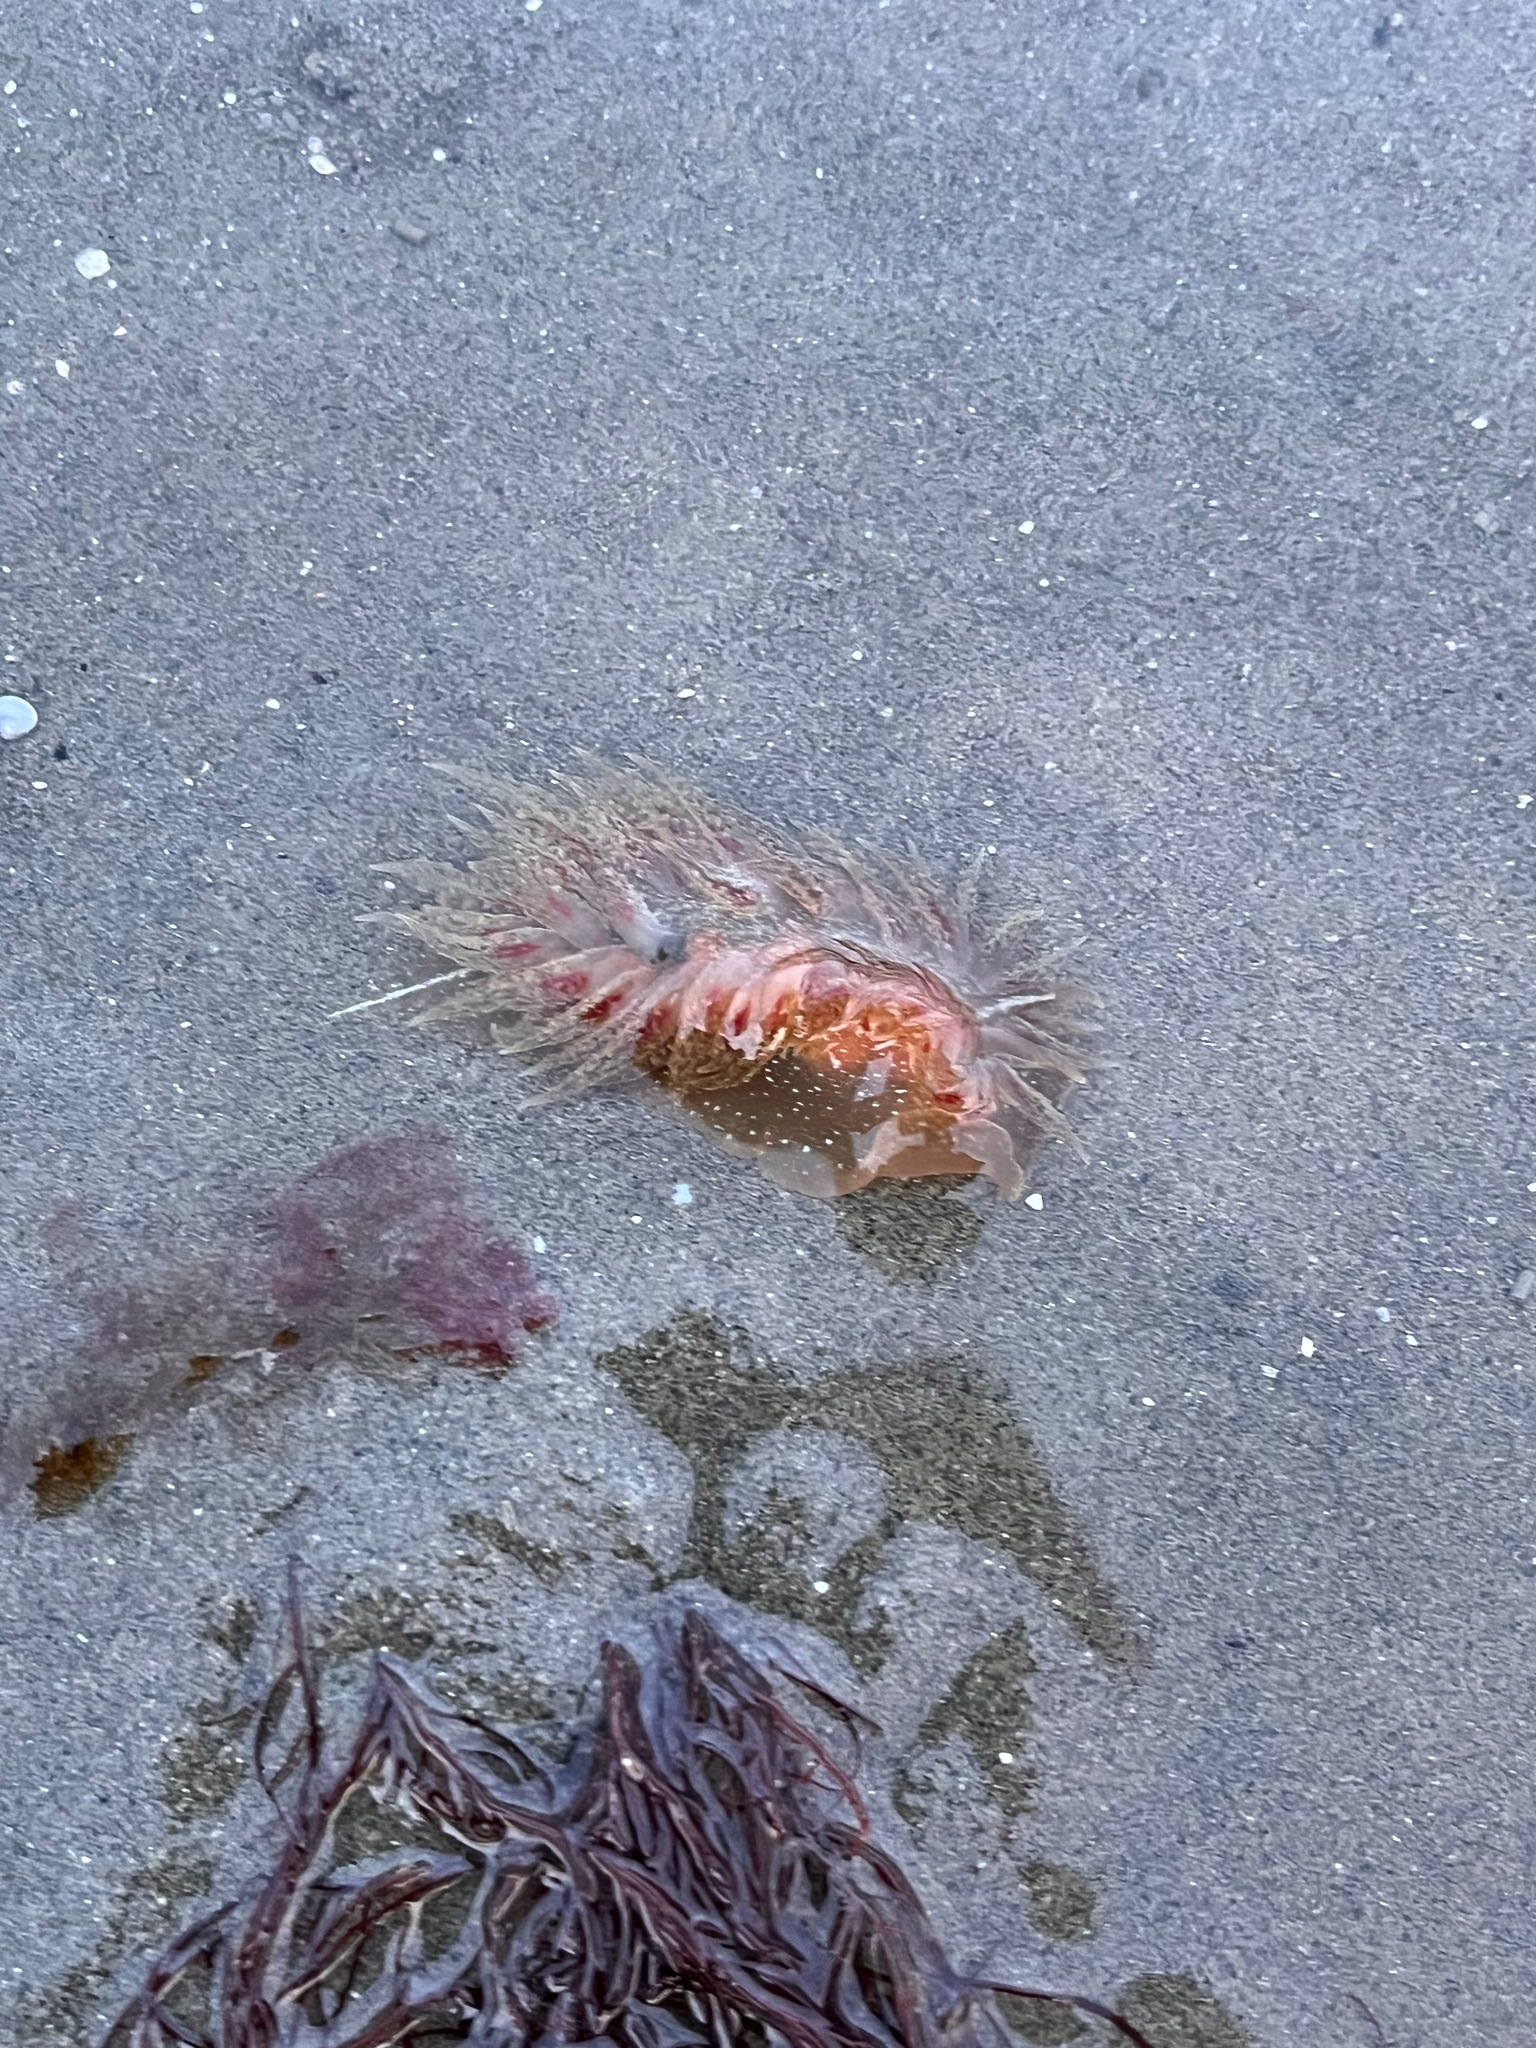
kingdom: Animalia
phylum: Mollusca
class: Gastropoda
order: Nudibranchia
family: Dironidae
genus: Dirona
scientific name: Dirona picta
